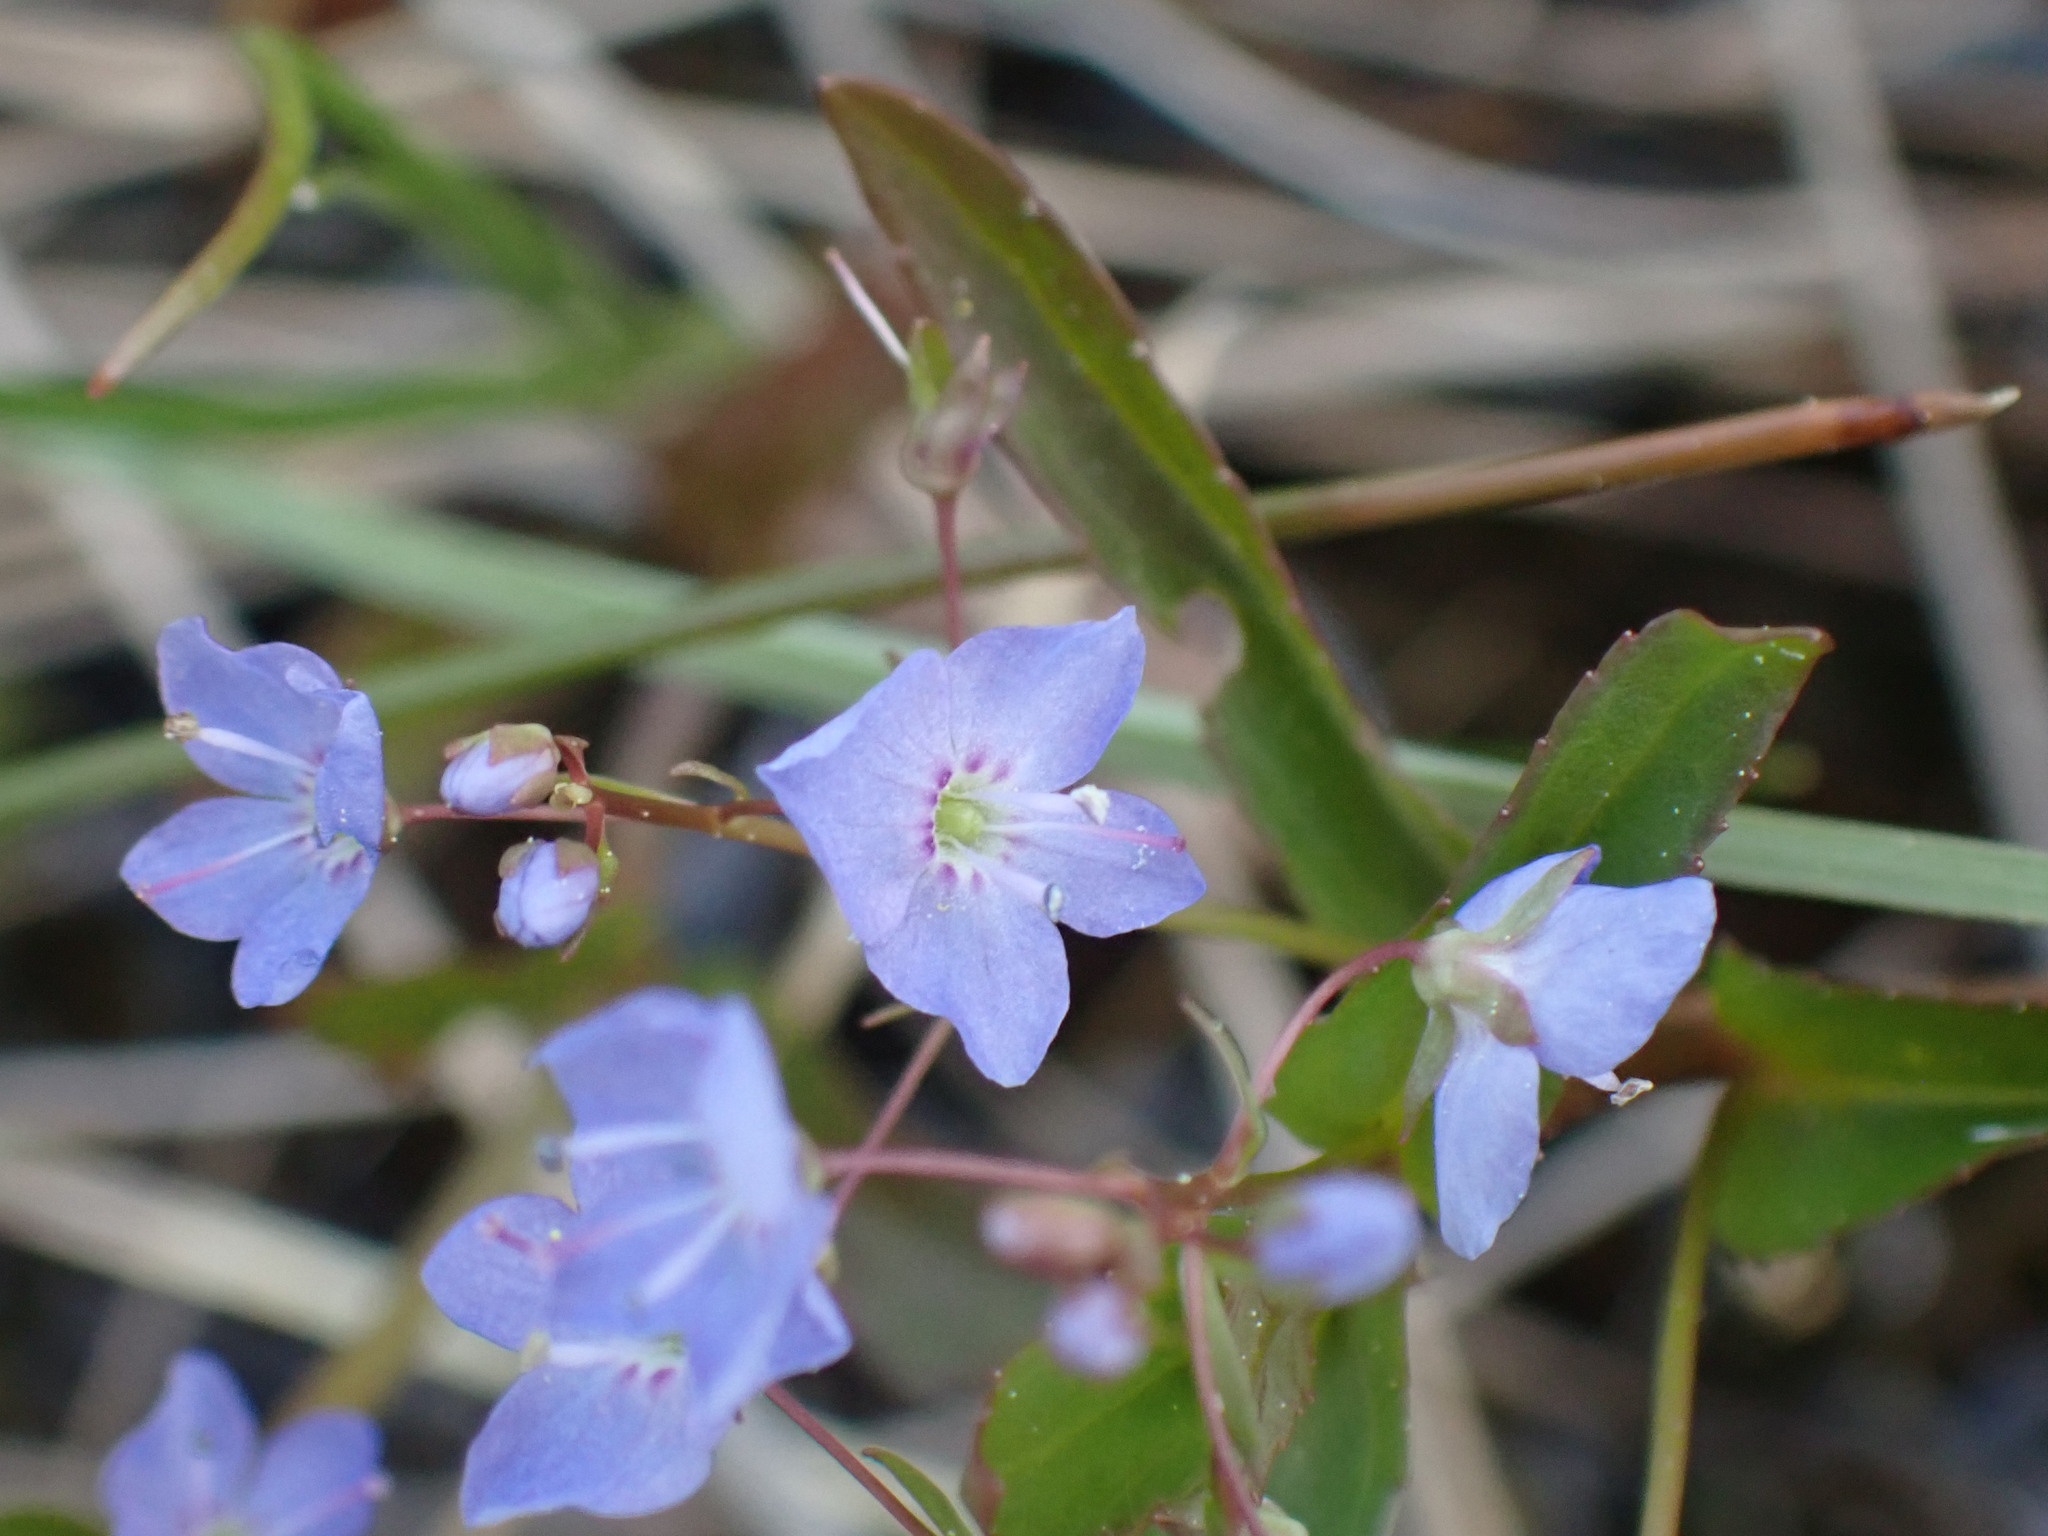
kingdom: Plantae
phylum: Tracheophyta
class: Magnoliopsida
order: Lamiales
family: Plantaginaceae
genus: Veronica
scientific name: Veronica americana
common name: American brooklime
